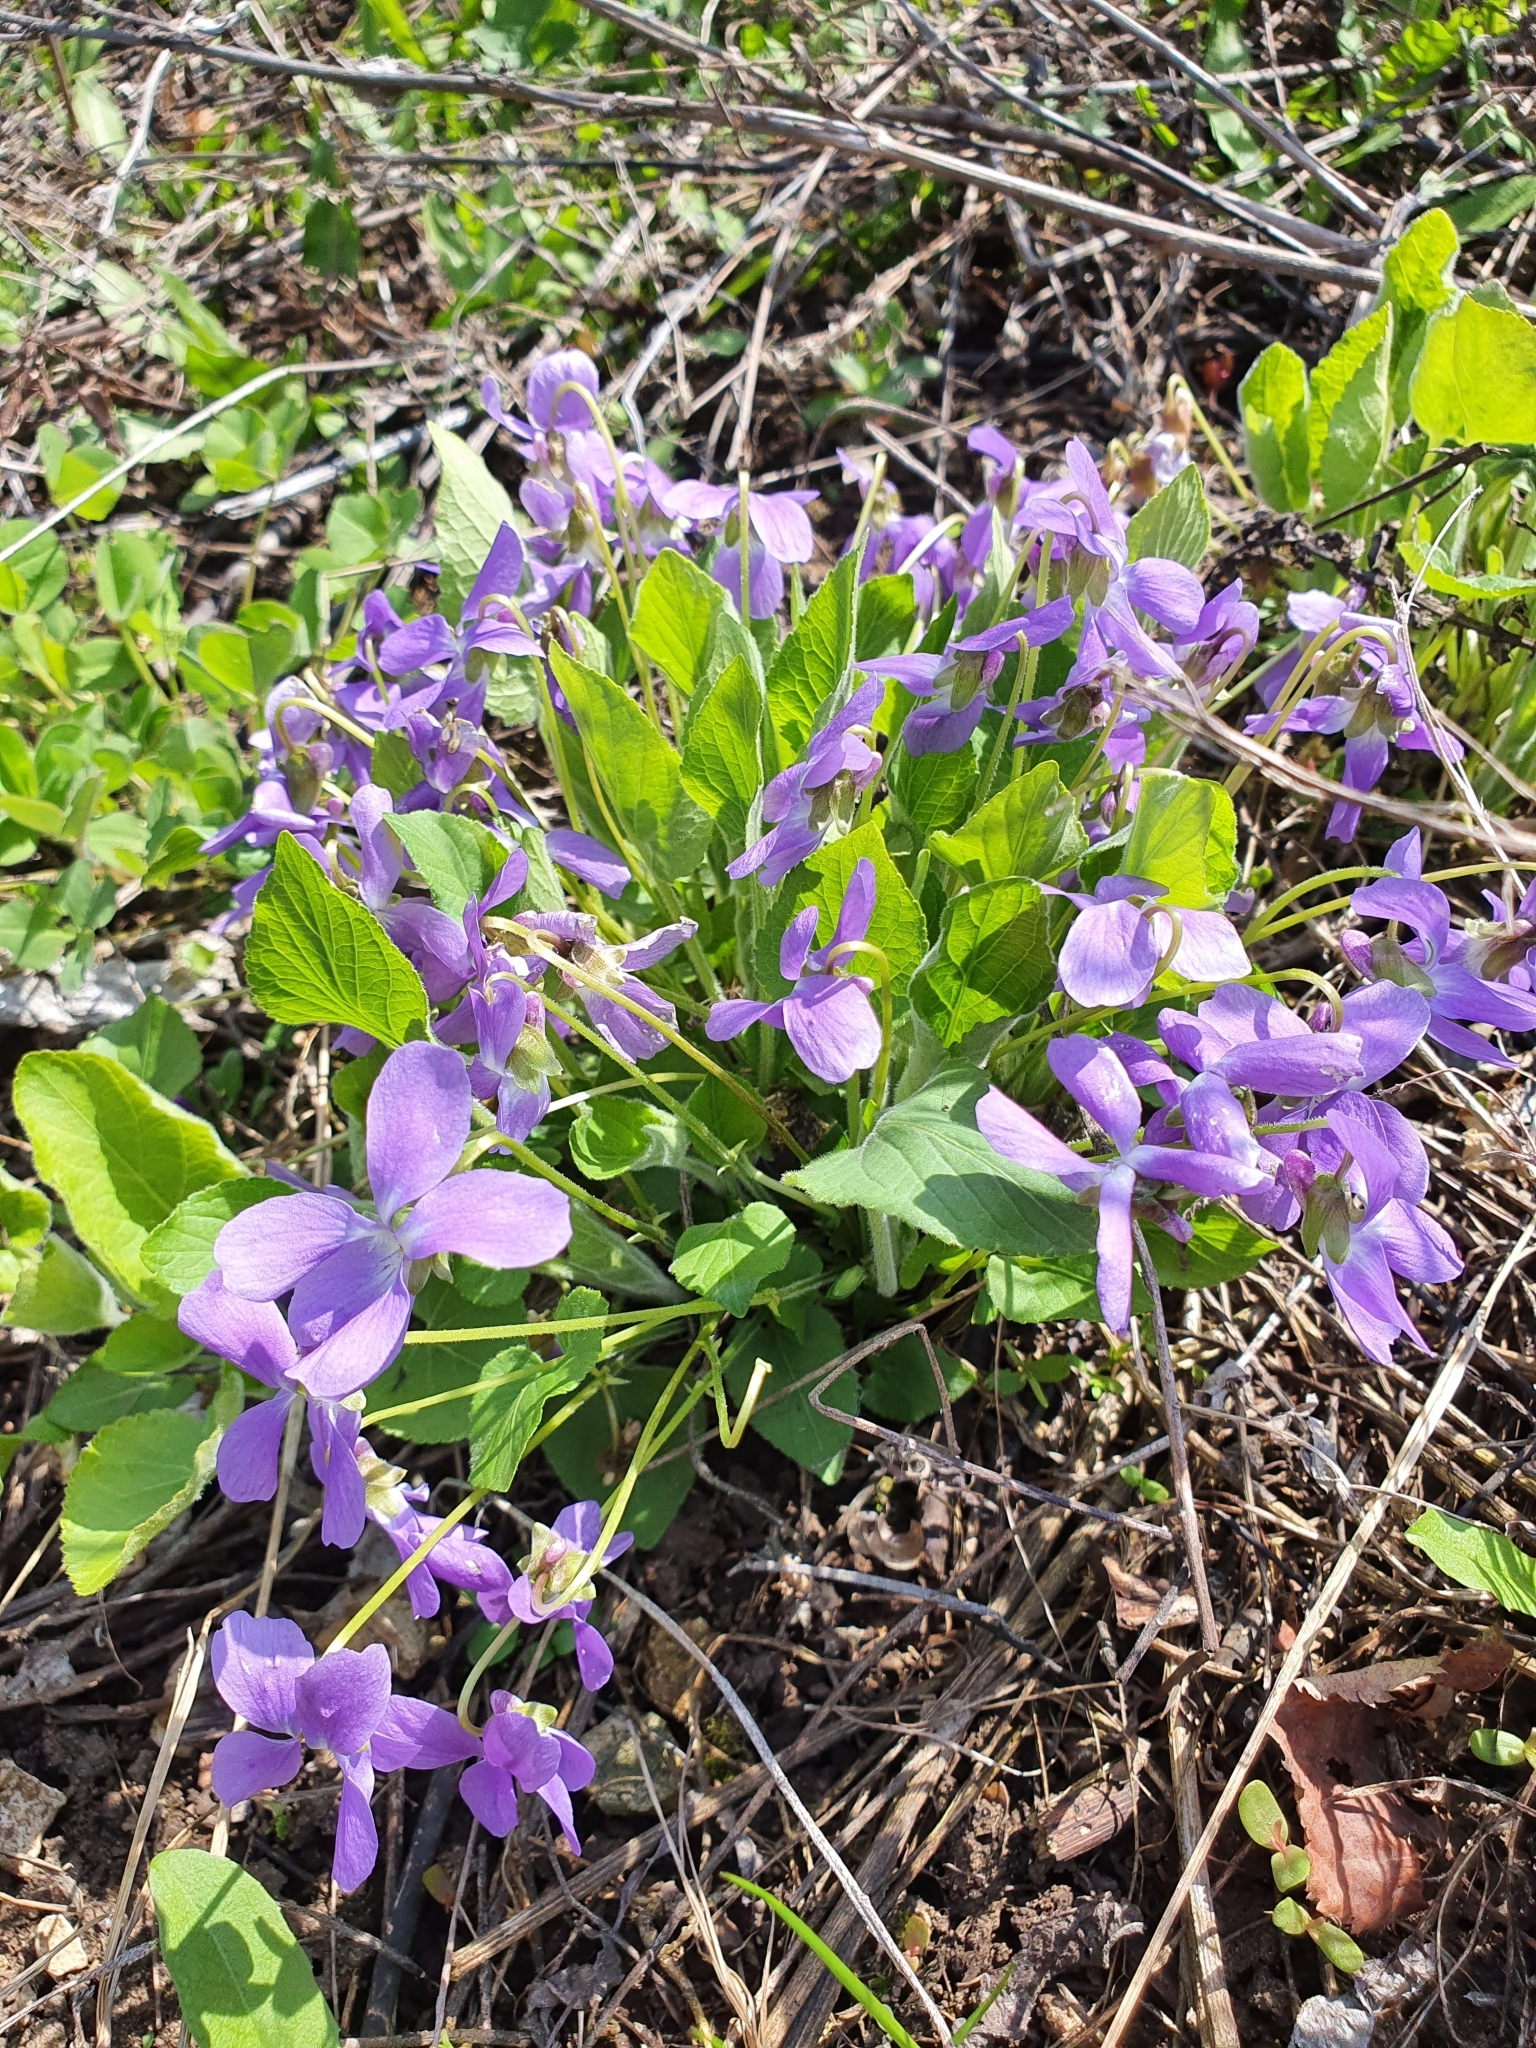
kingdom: Plantae
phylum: Tracheophyta
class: Magnoliopsida
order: Malpighiales
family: Violaceae
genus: Viola
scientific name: Viola hirta
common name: Hairy violet
